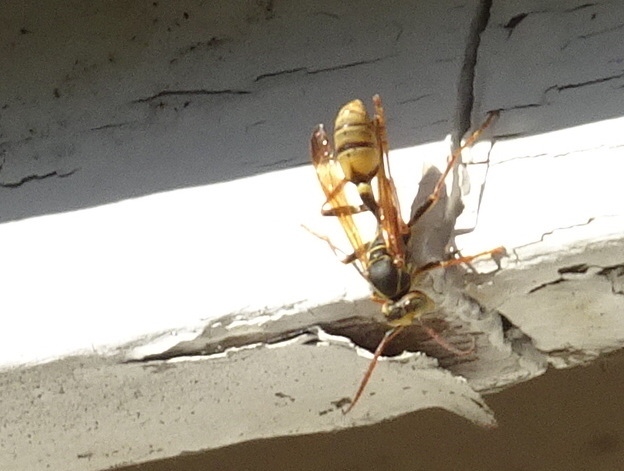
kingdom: Animalia
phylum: Arthropoda
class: Insecta
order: Hymenoptera
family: Vespidae
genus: Mischocyttarus
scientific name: Mischocyttarus flavitarsis
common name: Wasp
